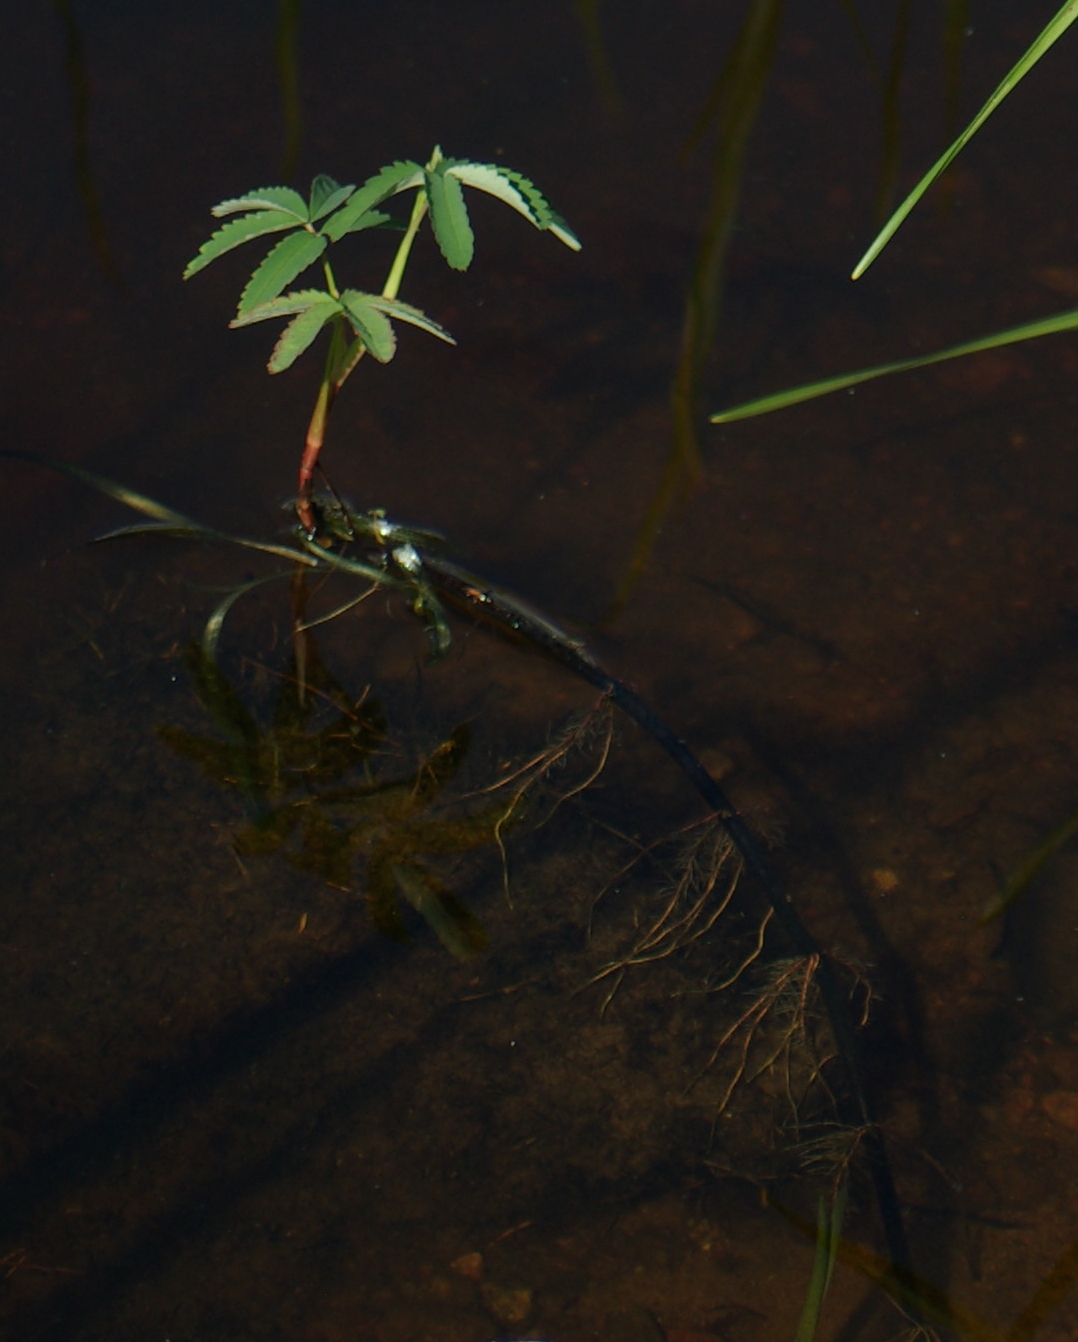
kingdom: Plantae
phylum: Tracheophyta
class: Magnoliopsida
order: Rosales
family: Rosaceae
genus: Comarum
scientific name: Comarum palustre
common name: Marsh cinquefoil
